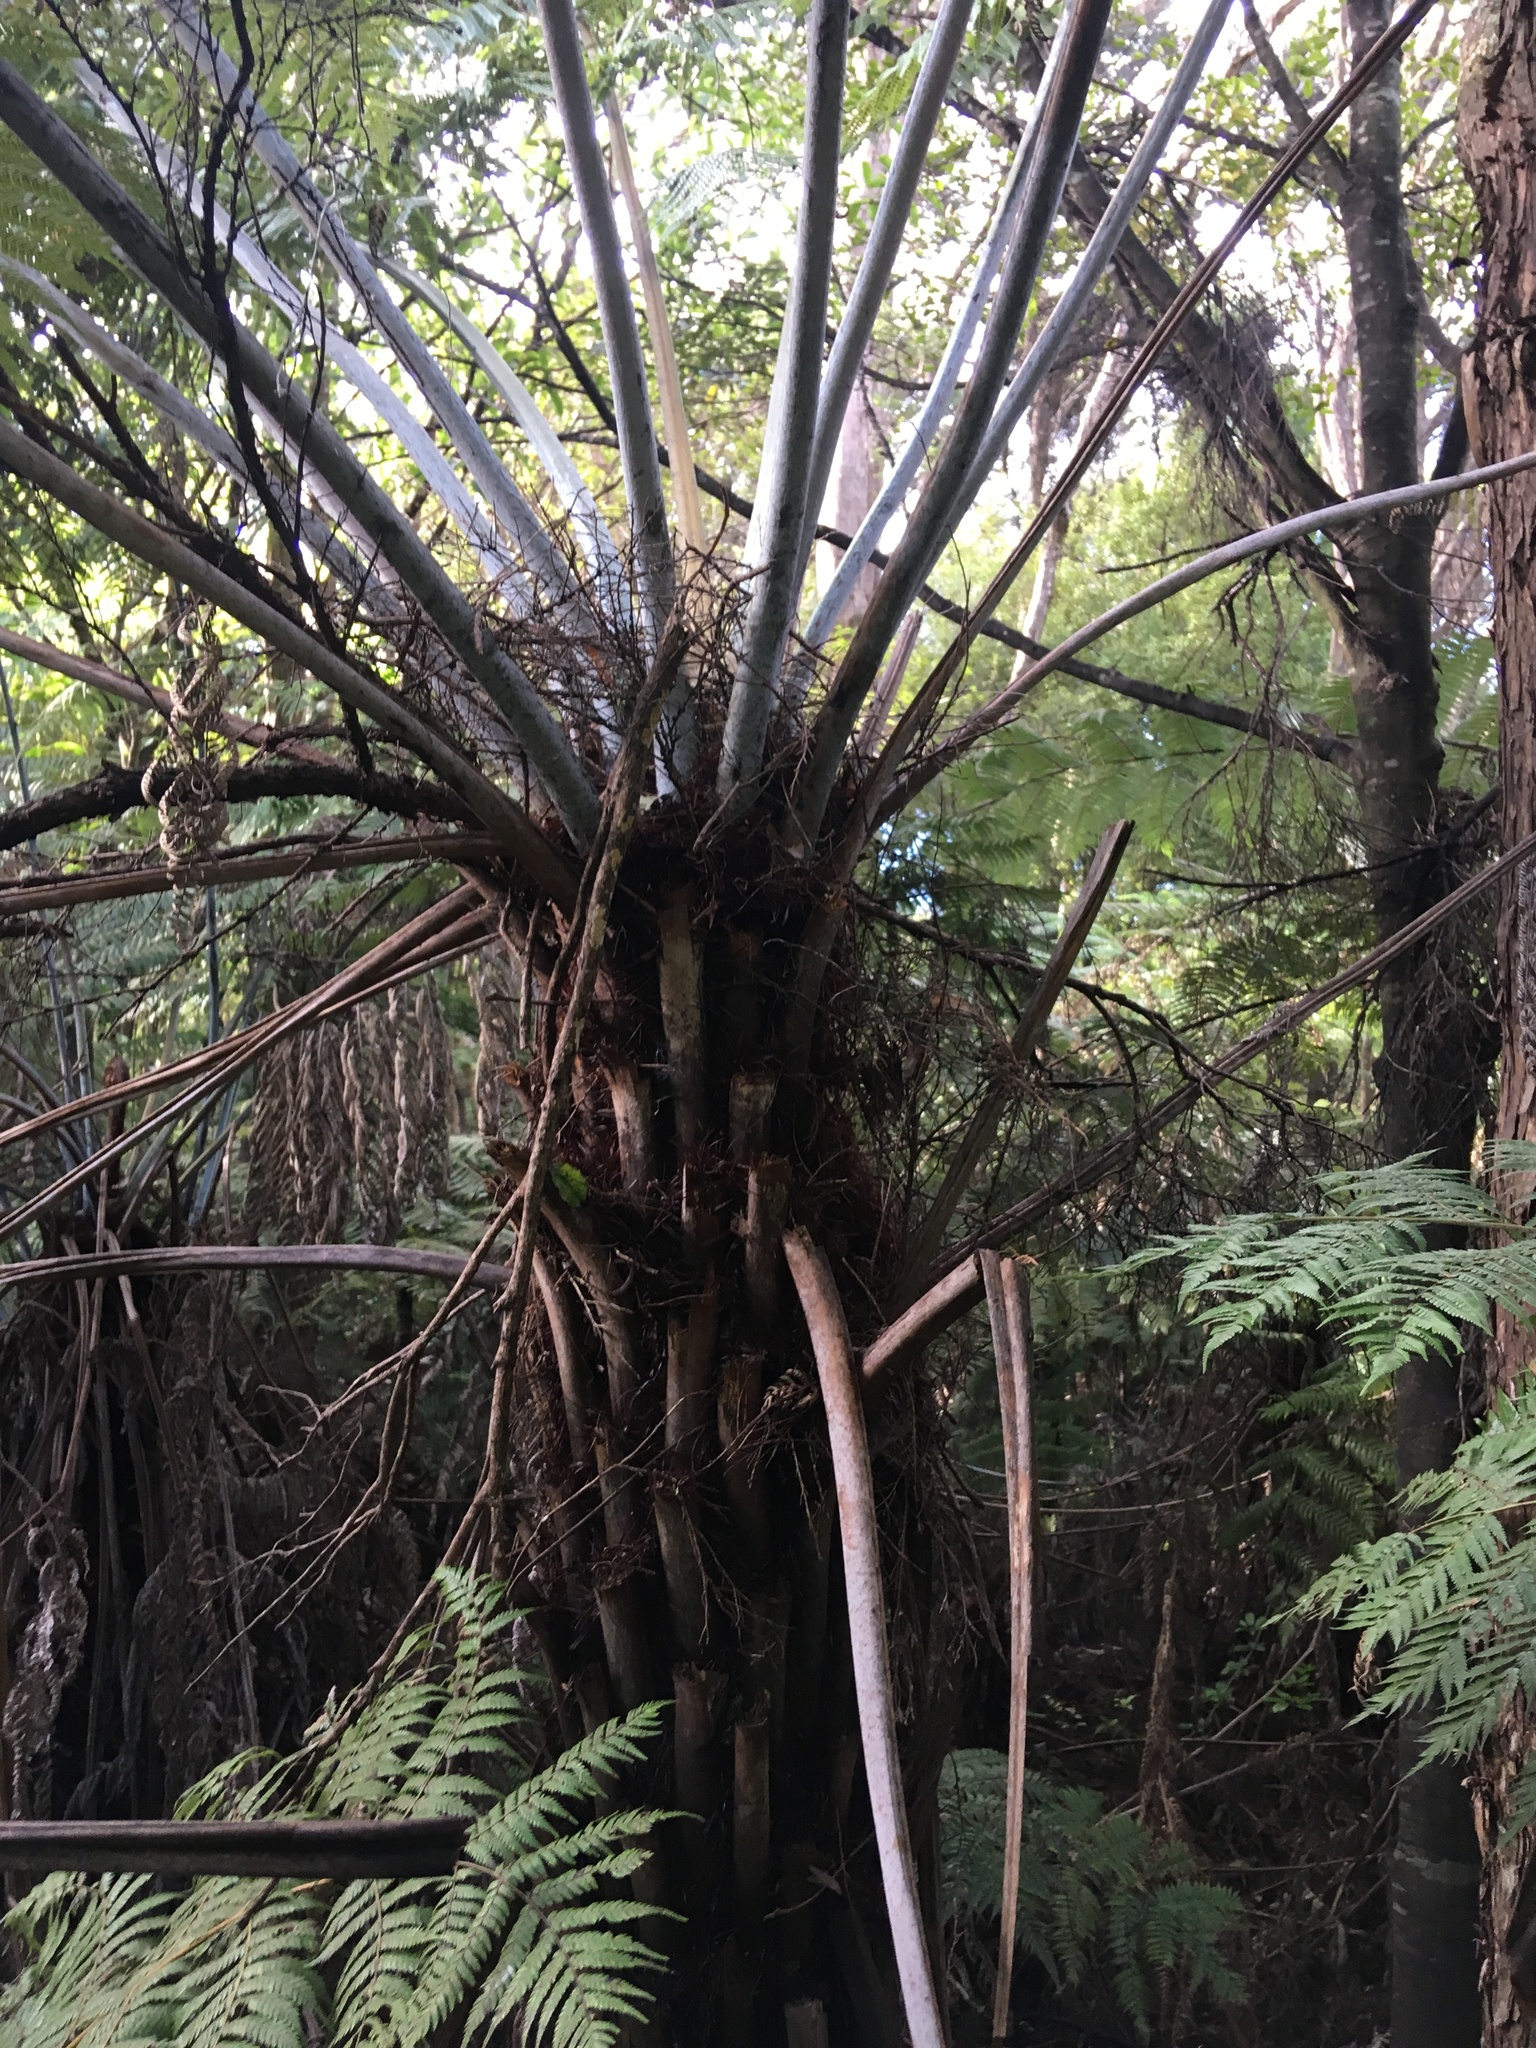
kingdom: Plantae
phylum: Tracheophyta
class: Polypodiopsida
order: Cyatheales
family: Cyatheaceae
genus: Alsophila
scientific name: Alsophila dealbata
